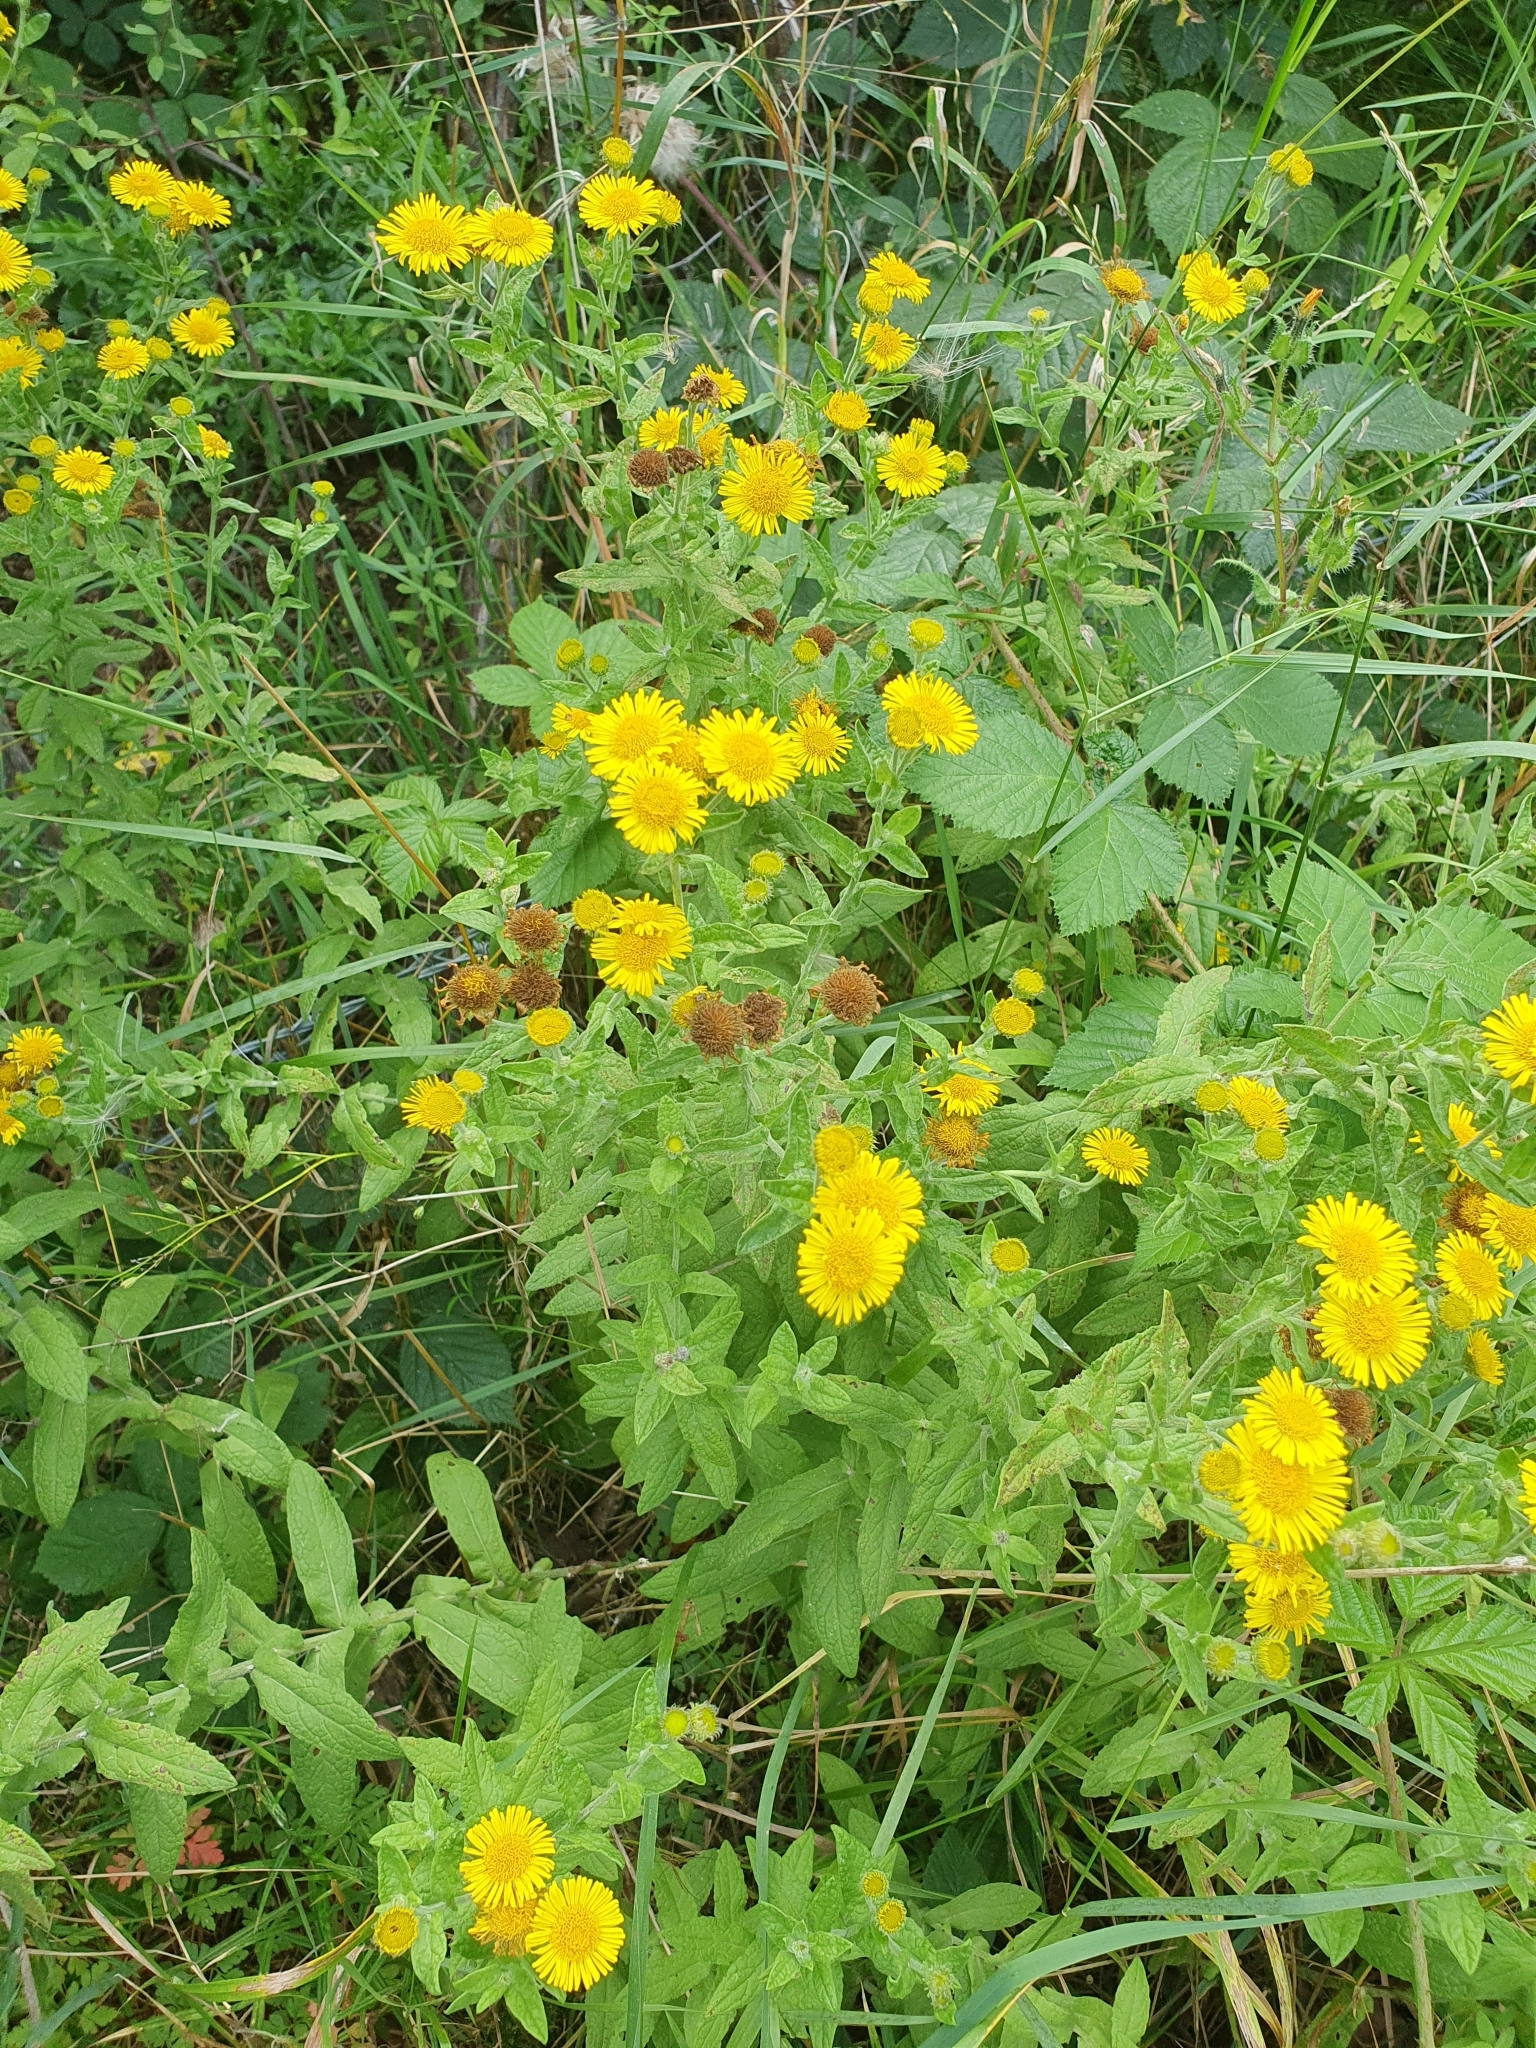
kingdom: Plantae
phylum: Tracheophyta
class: Magnoliopsida
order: Asterales
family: Asteraceae
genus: Pulicaria
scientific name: Pulicaria dysenterica
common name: Common fleabane
